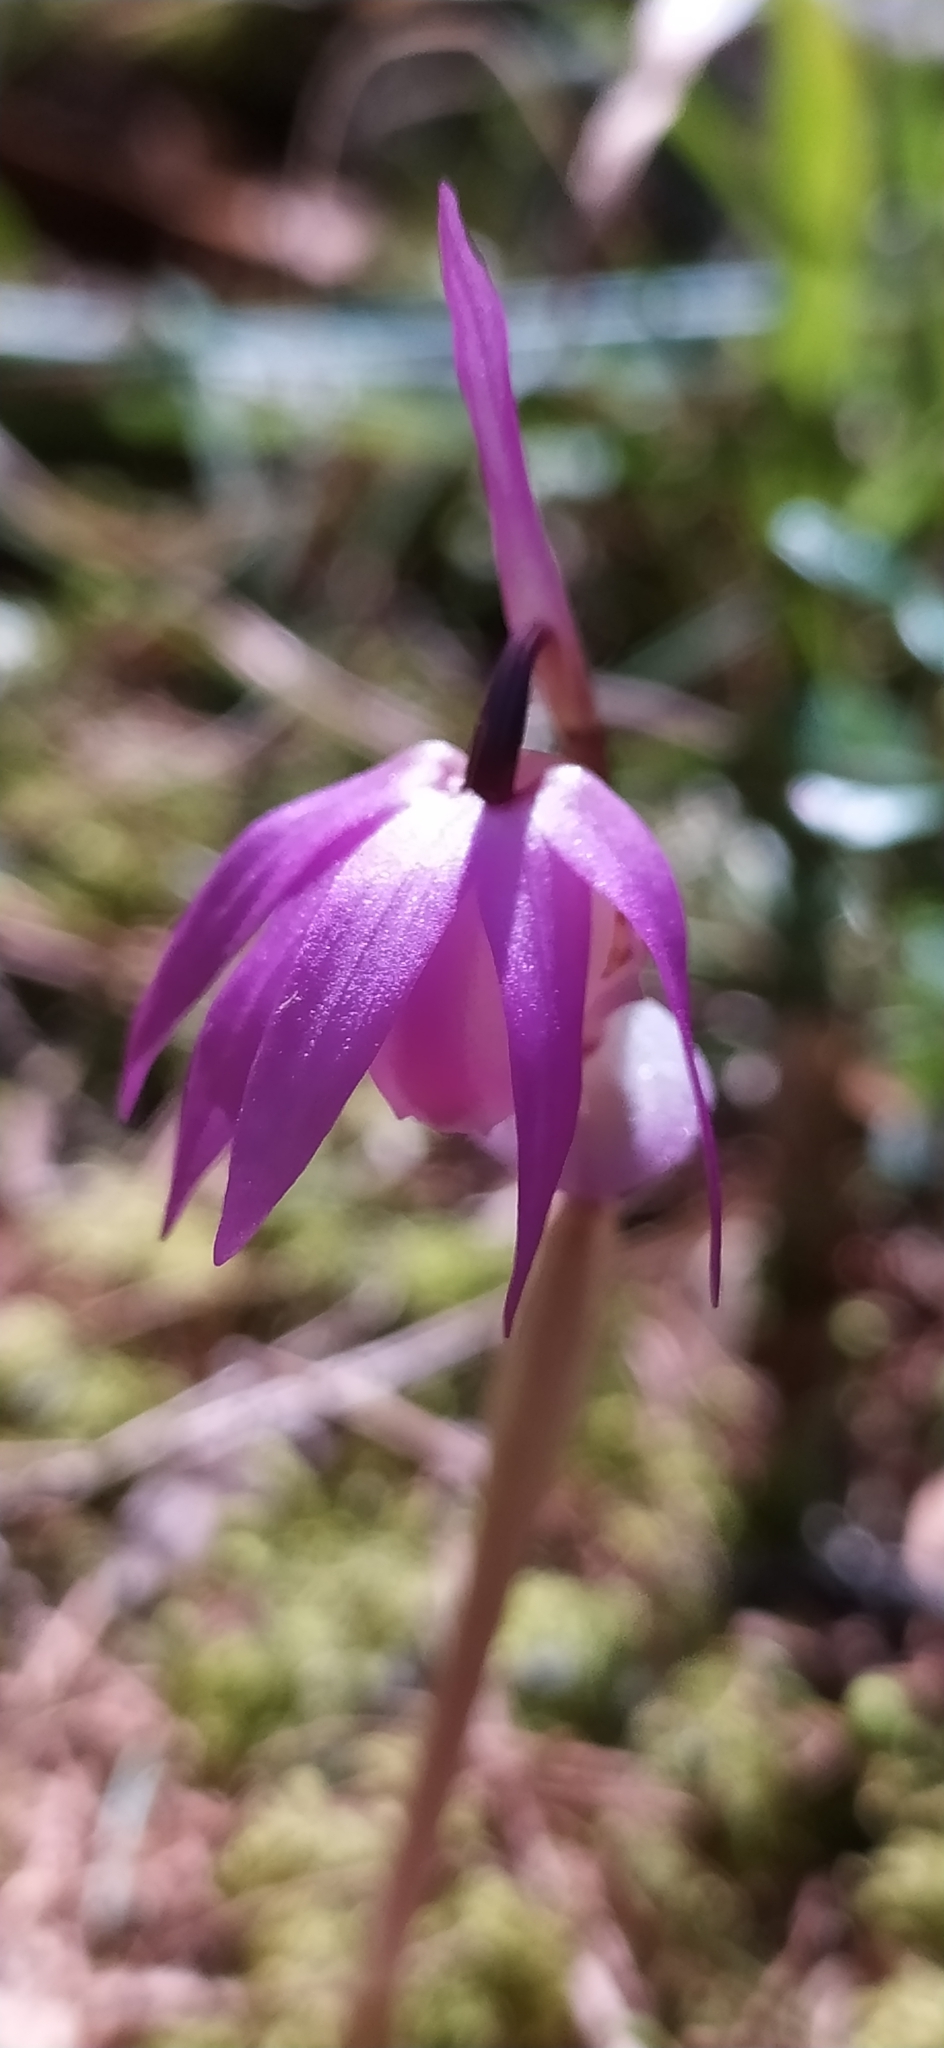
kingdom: Plantae
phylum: Tracheophyta
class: Liliopsida
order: Asparagales
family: Orchidaceae
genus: Calypso
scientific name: Calypso bulbosa
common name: Calypso
